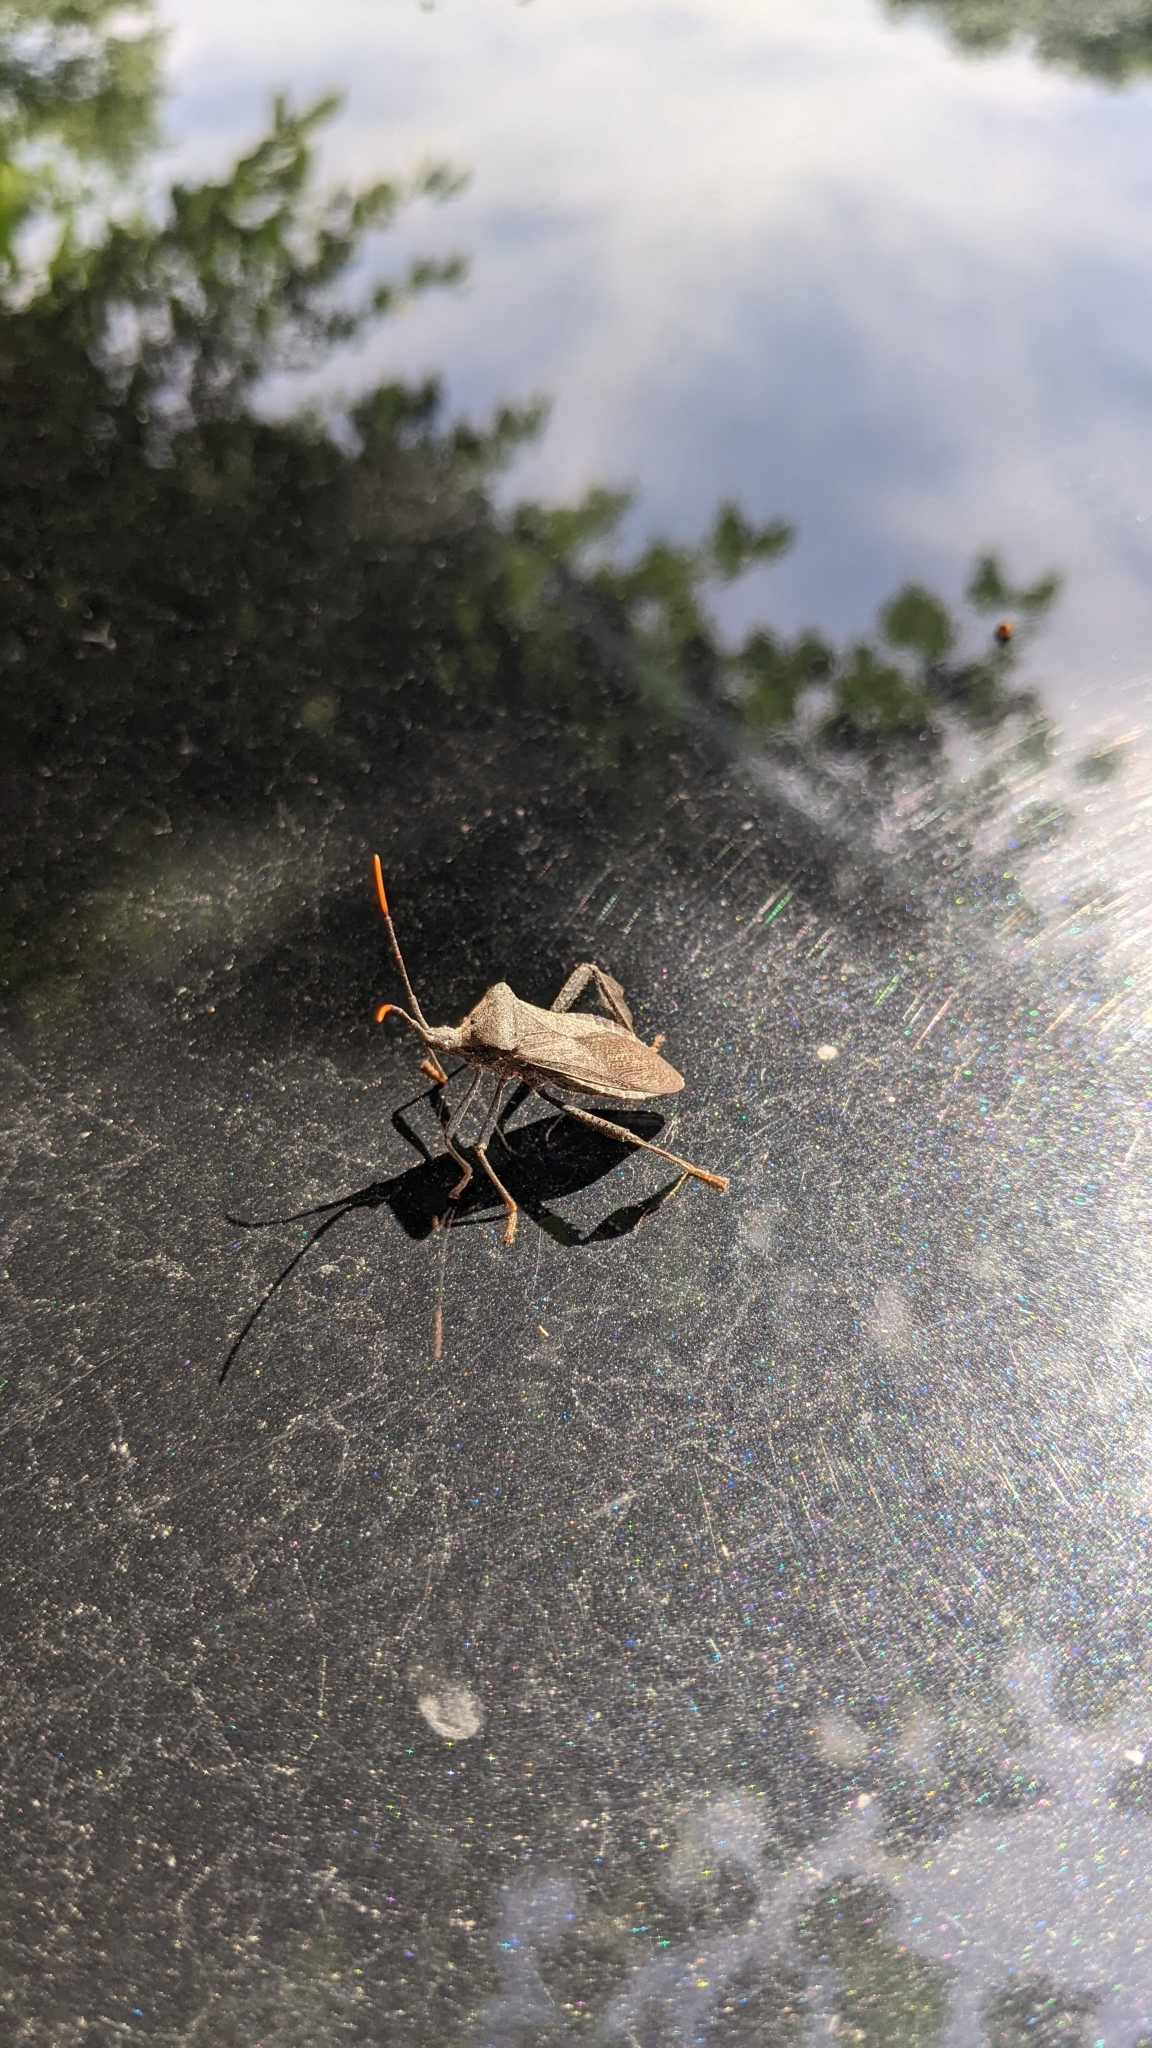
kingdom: Animalia
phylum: Arthropoda
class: Insecta
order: Hemiptera
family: Coreidae
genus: Acanthocephala
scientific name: Acanthocephala terminalis
